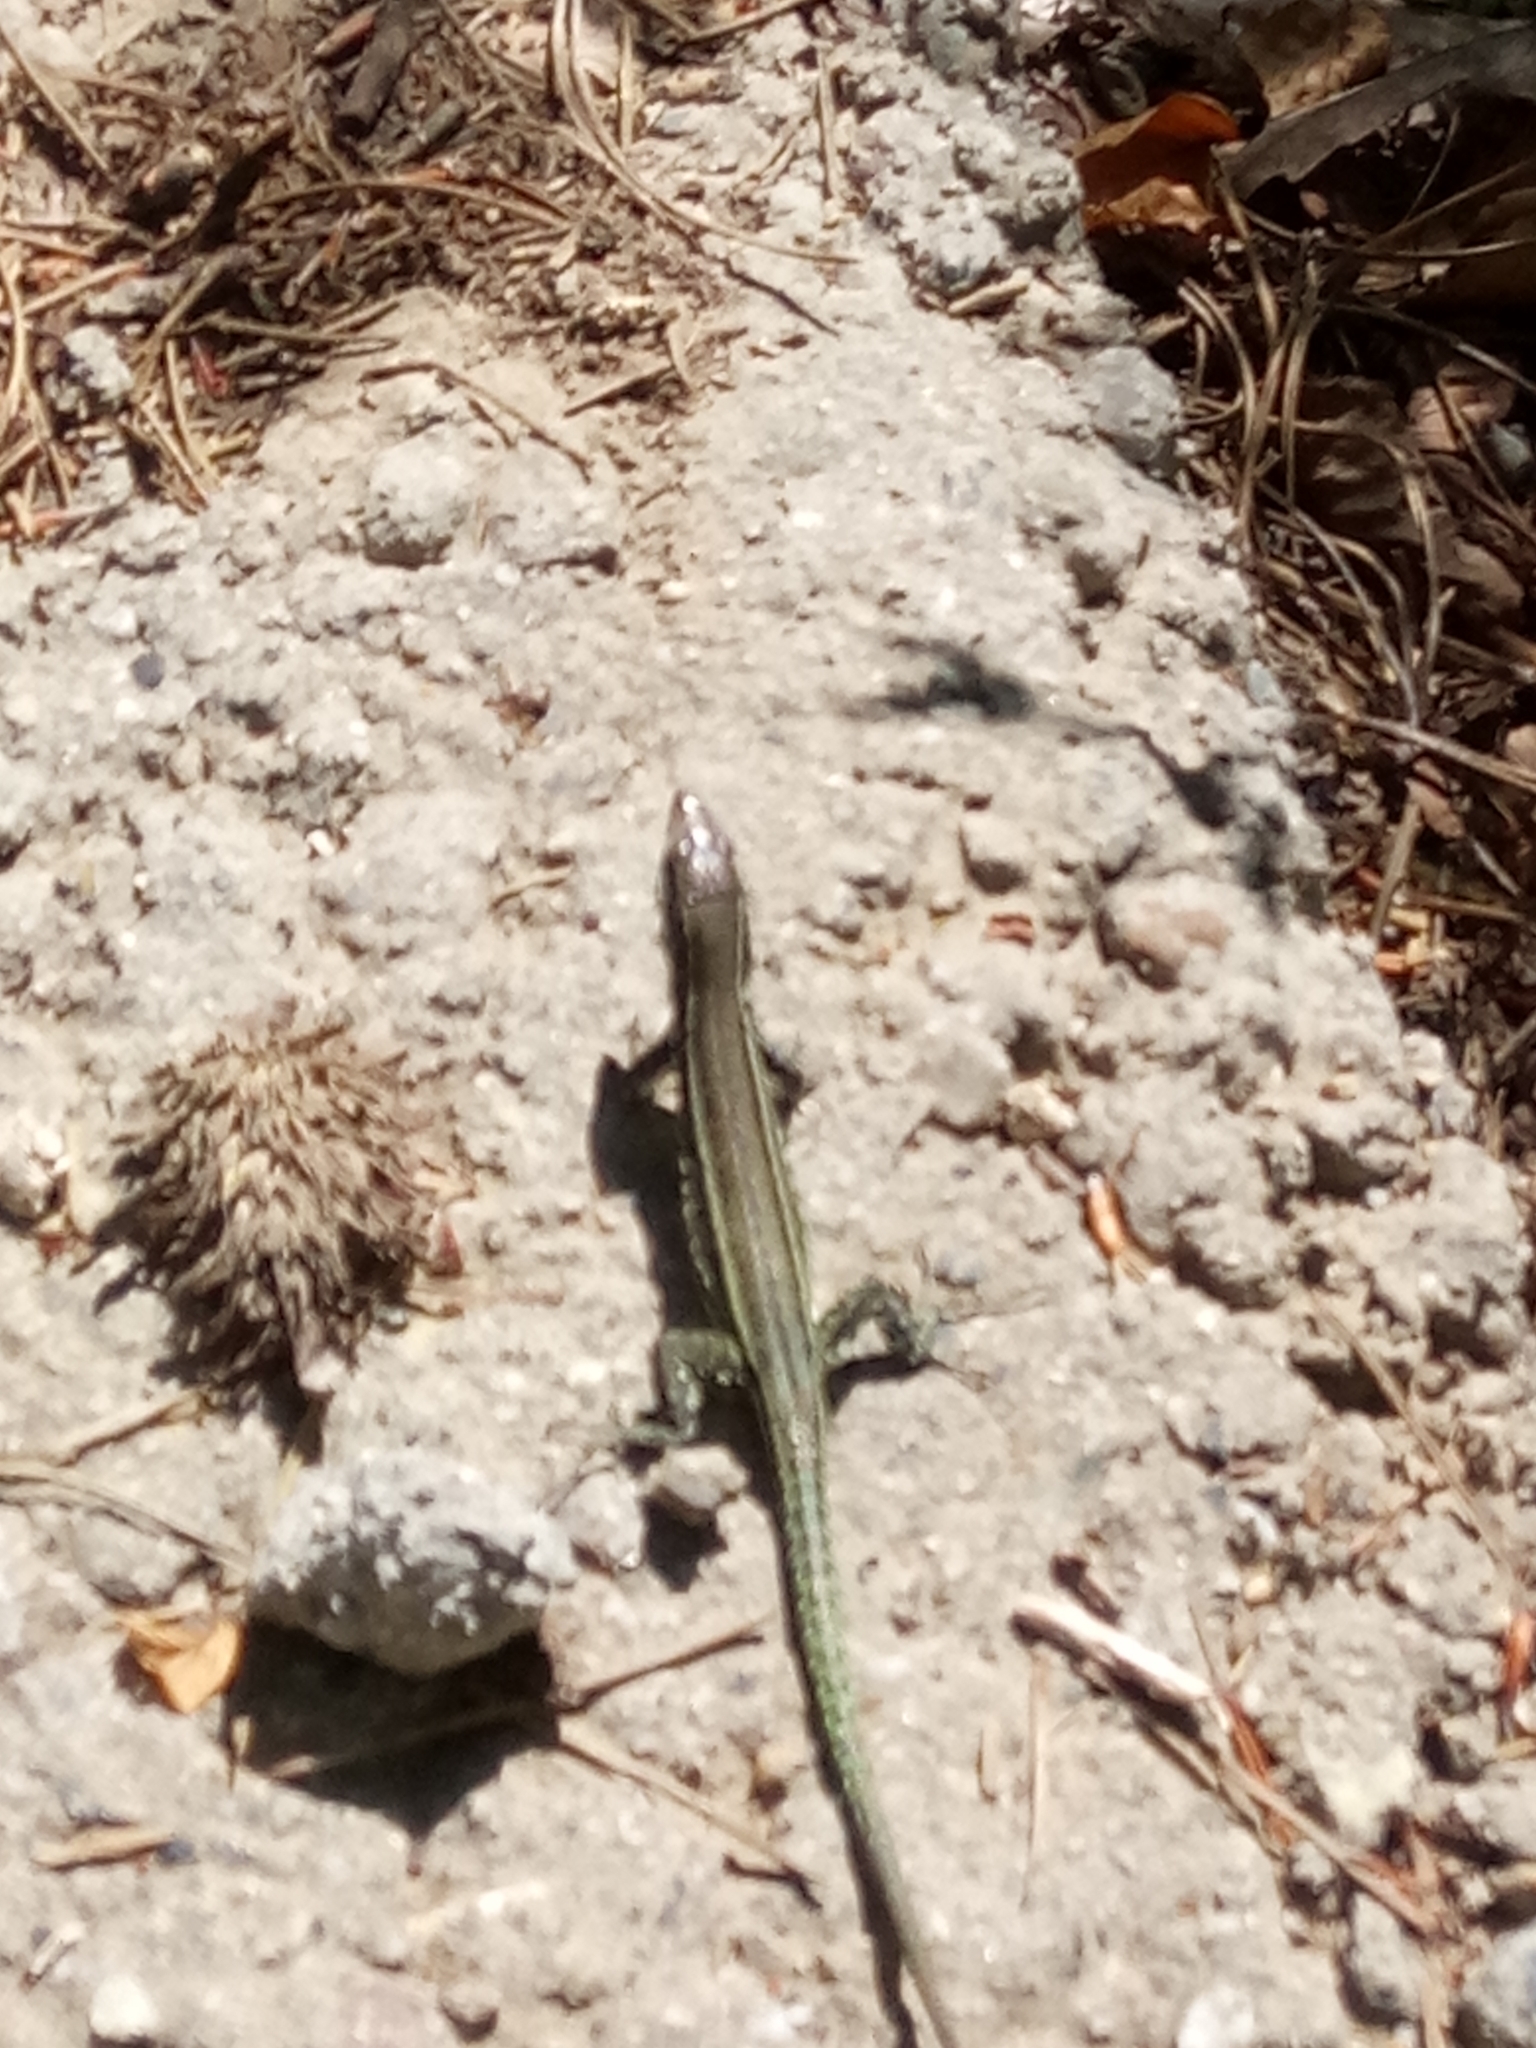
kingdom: Animalia
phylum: Chordata
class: Squamata
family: Lacertidae
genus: Podarcis
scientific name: Podarcis tiliguerta
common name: Tyrrhenian wall lizard
